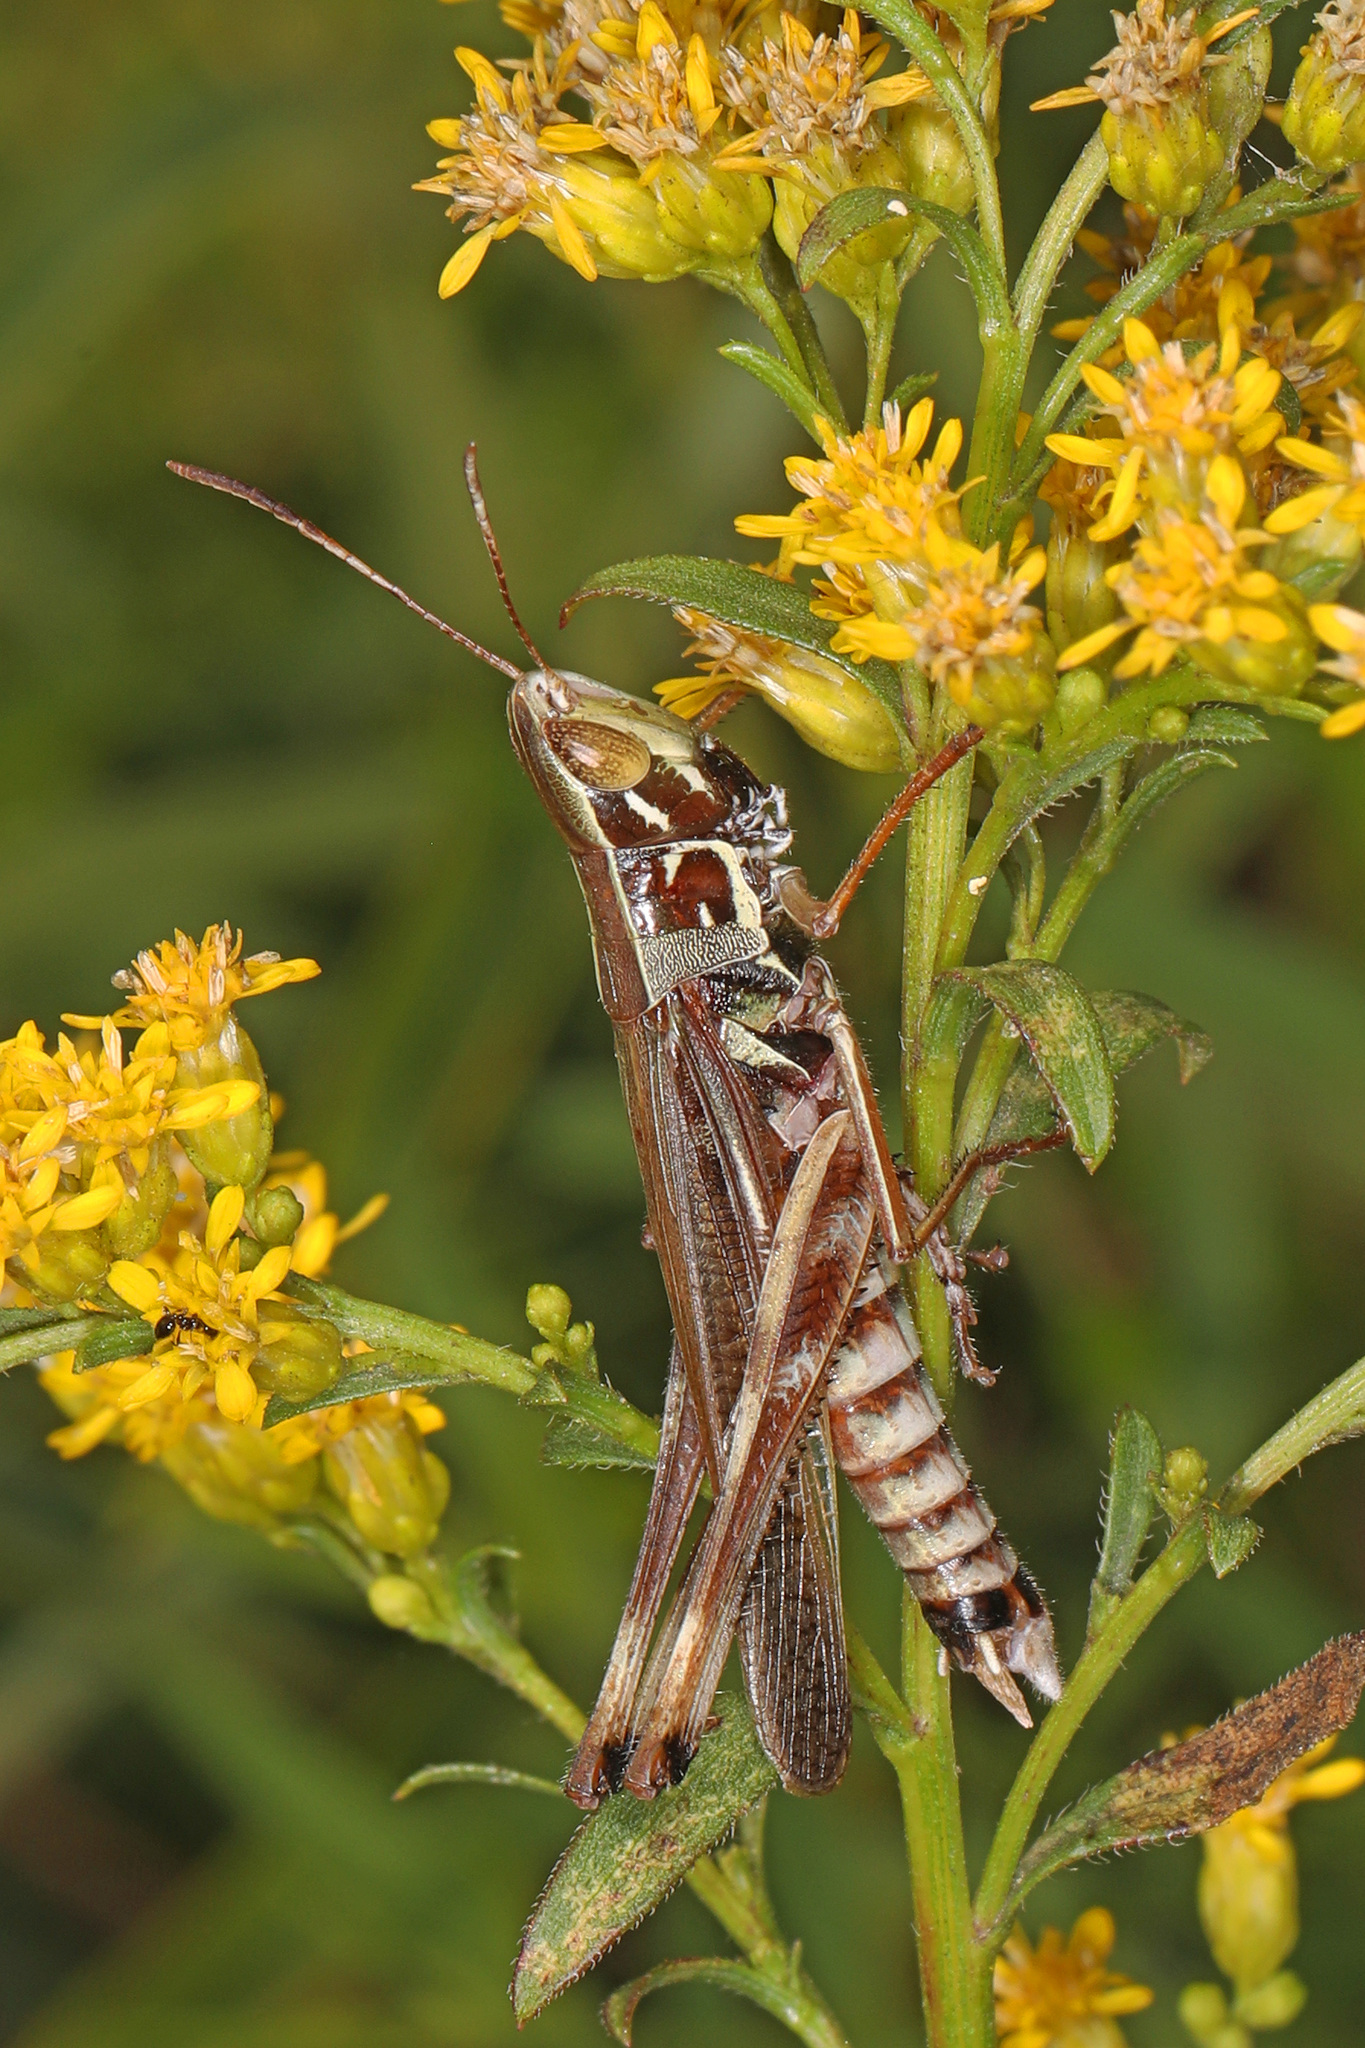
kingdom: Animalia
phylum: Arthropoda
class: Insecta
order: Orthoptera
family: Acrididae
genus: Syrbula
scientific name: Syrbula admirabilis
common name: Handsome grasshopper
